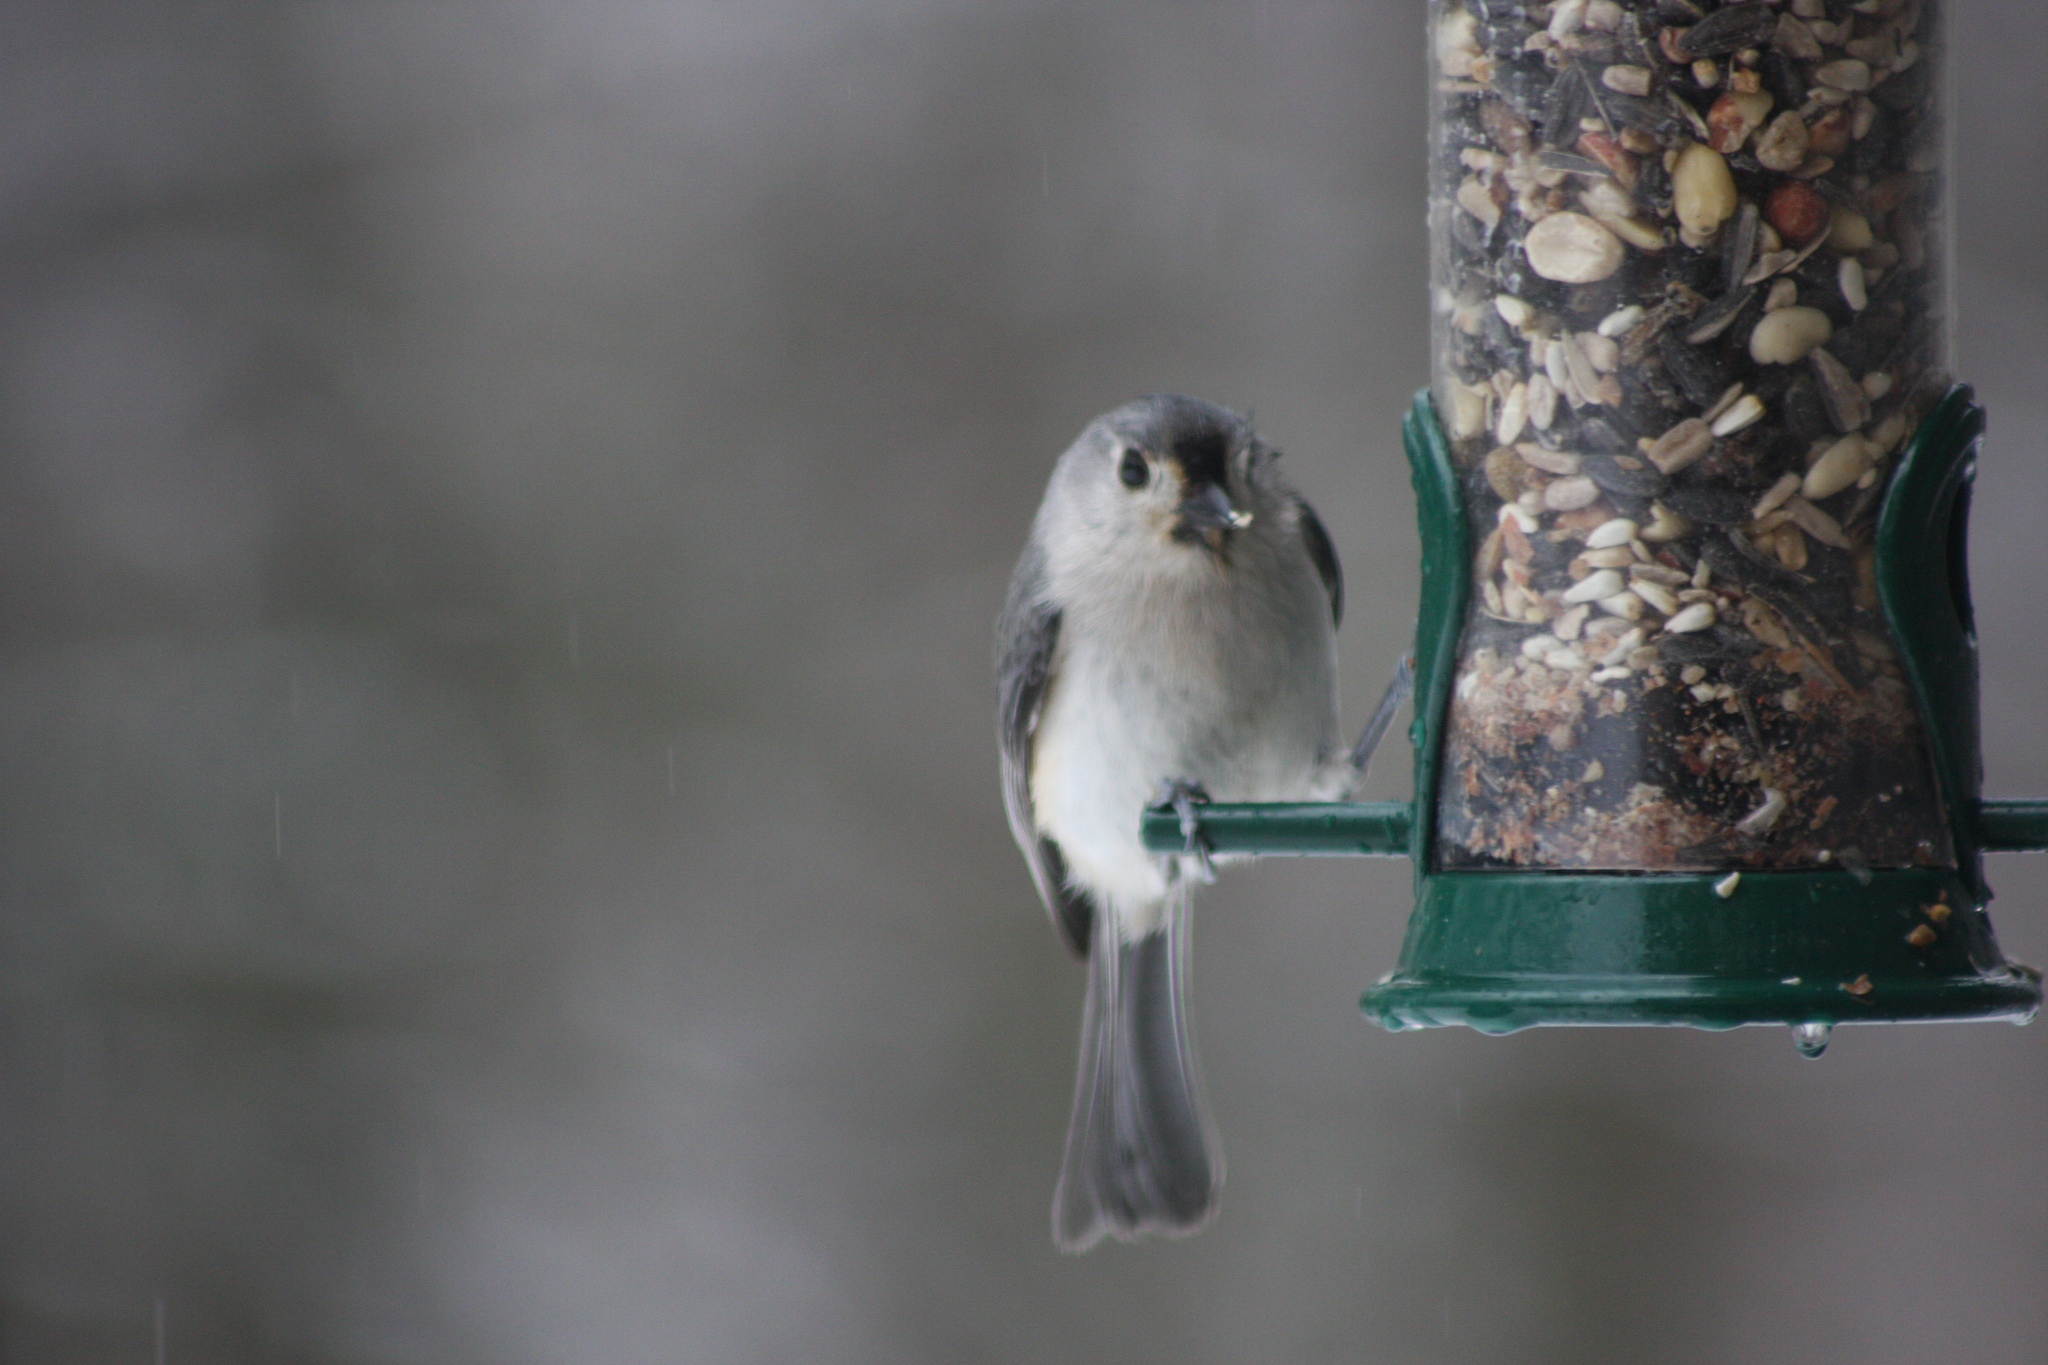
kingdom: Animalia
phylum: Chordata
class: Aves
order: Passeriformes
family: Paridae
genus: Baeolophus
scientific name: Baeolophus bicolor
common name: Tufted titmouse
